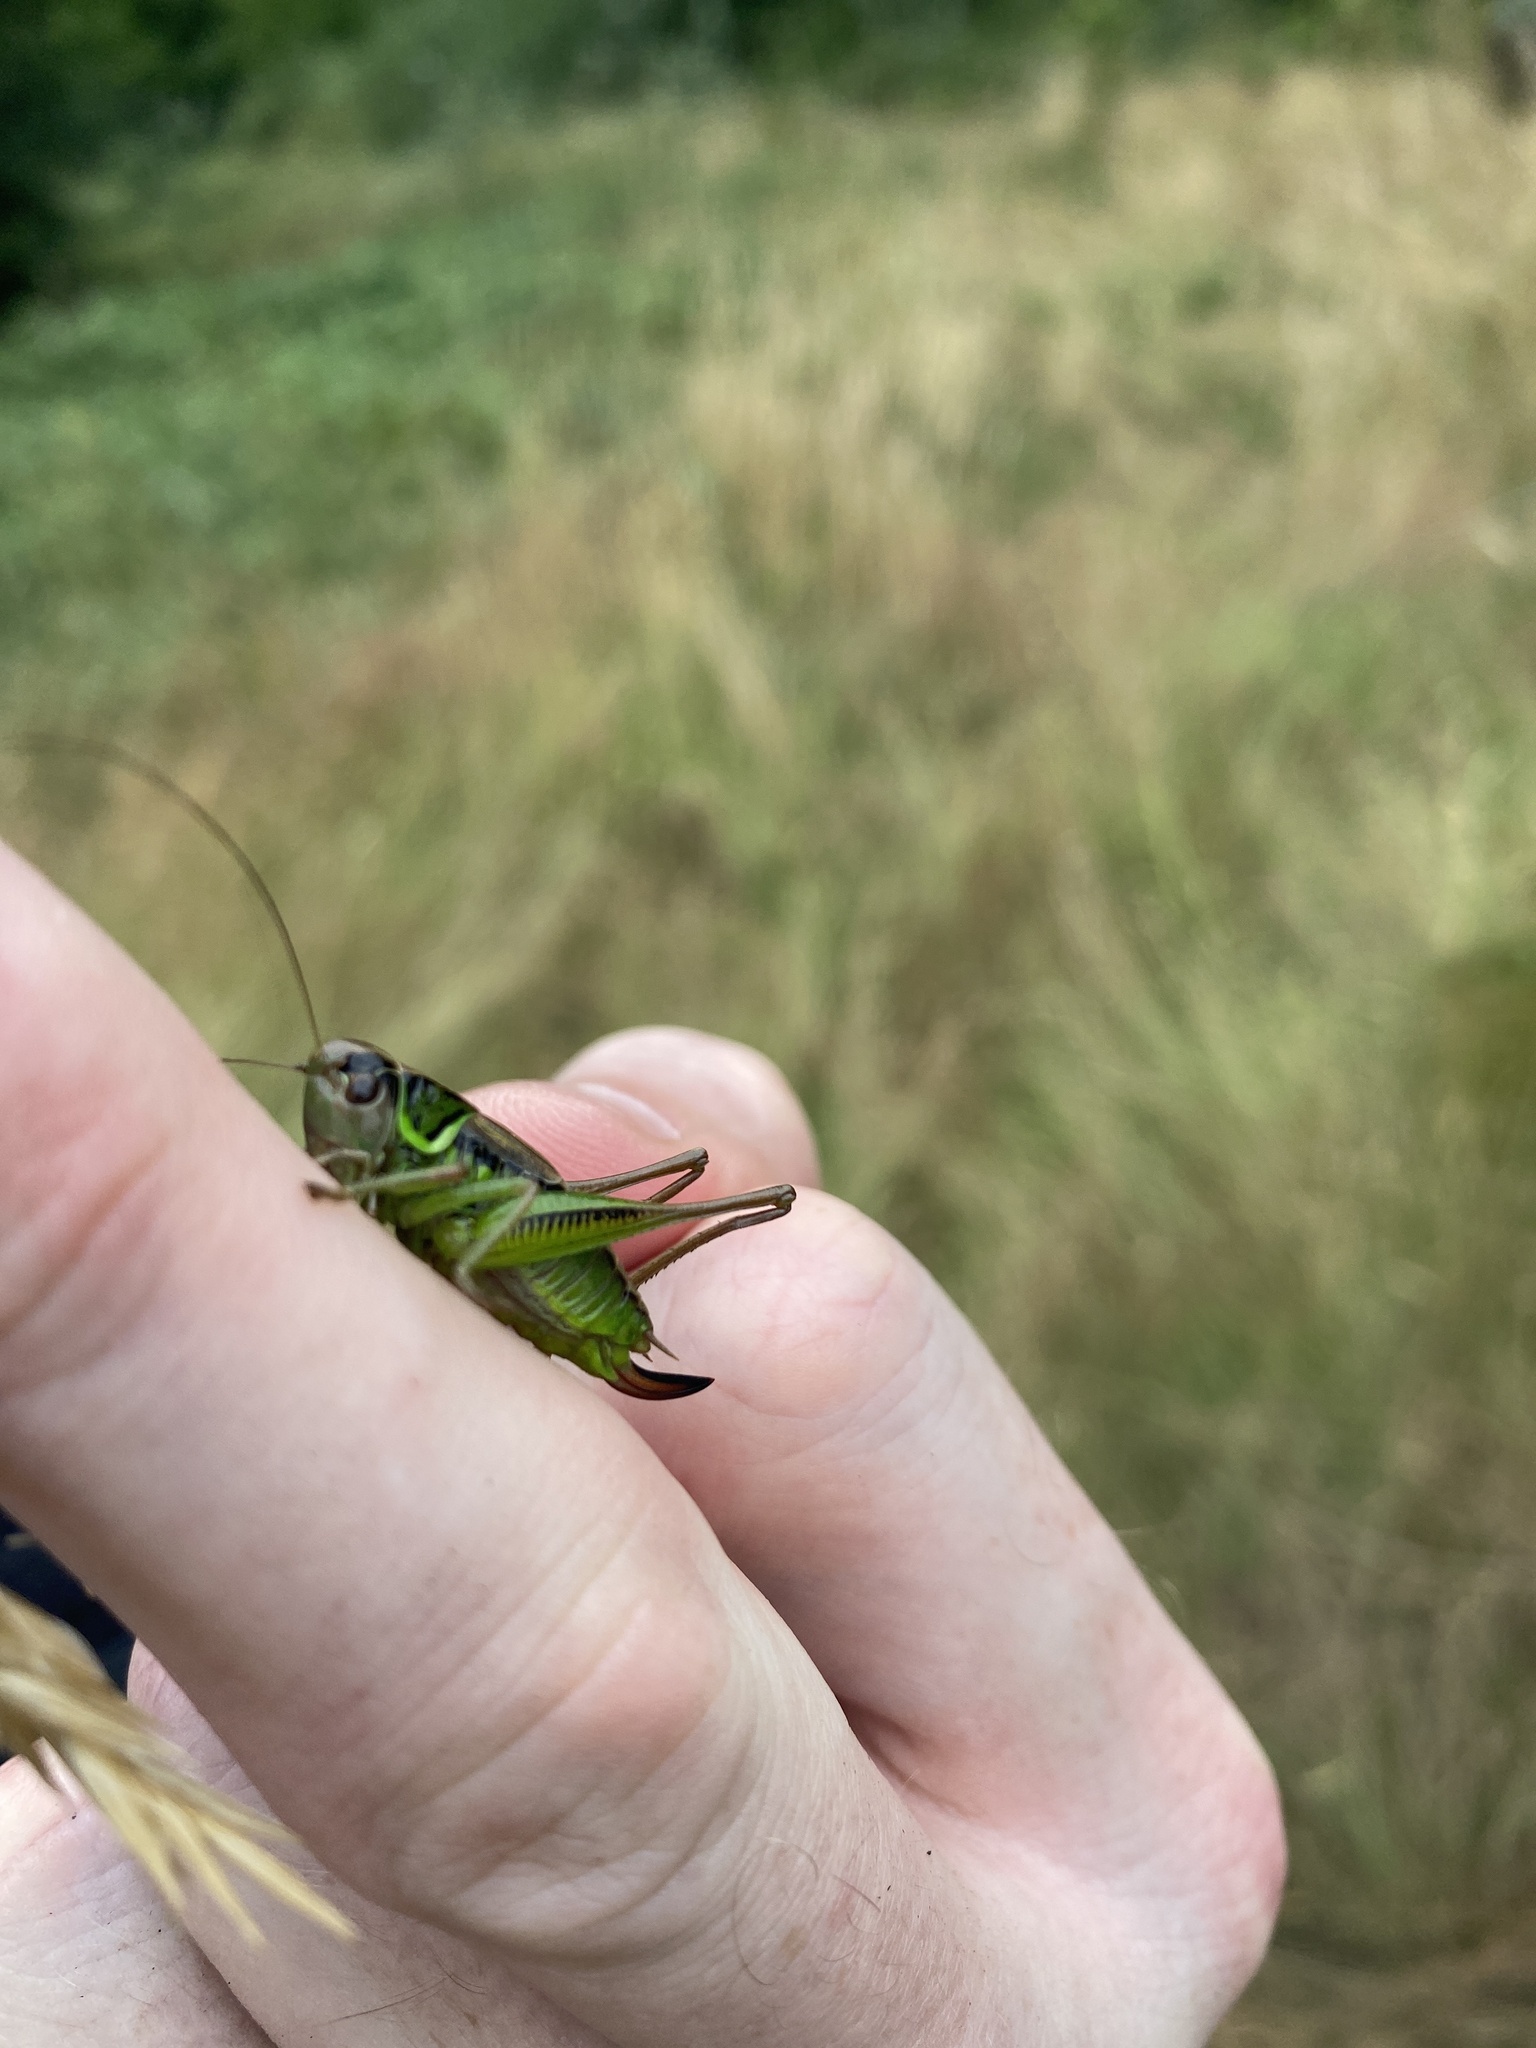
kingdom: Animalia
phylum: Arthropoda
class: Insecta
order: Orthoptera
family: Tettigoniidae
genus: Roeseliana
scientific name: Roeseliana roeselii
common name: Roesel's bush cricket
